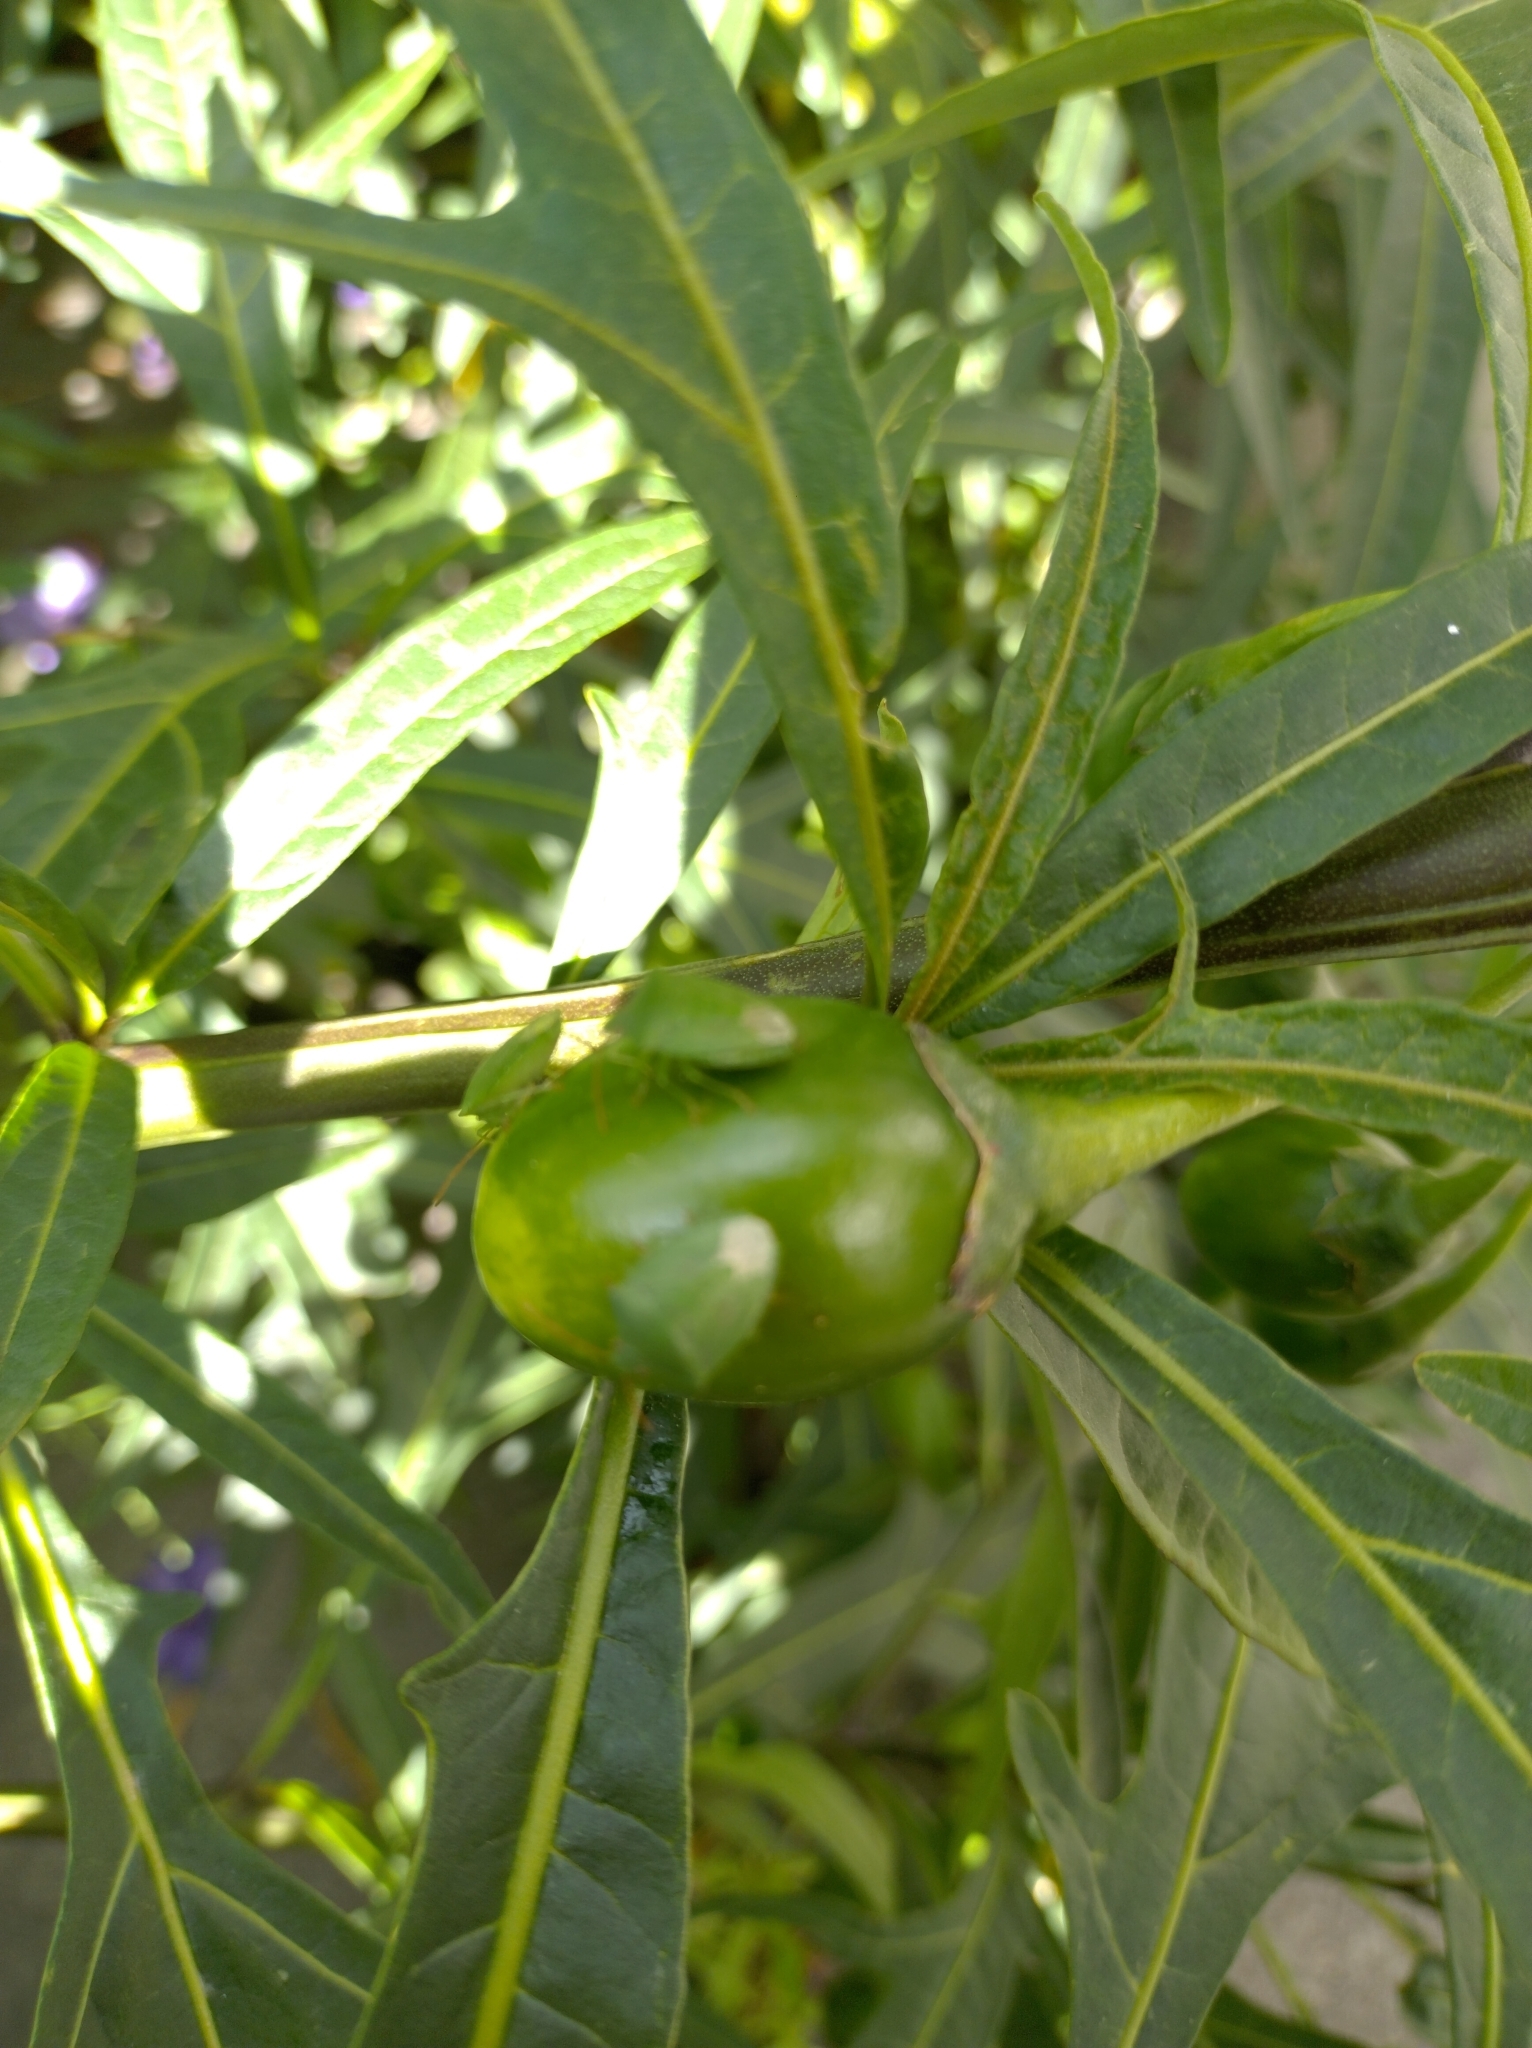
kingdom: Animalia
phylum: Arthropoda
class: Insecta
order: Hemiptera
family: Pentatomidae
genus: Cuspicona
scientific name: Cuspicona simplex
